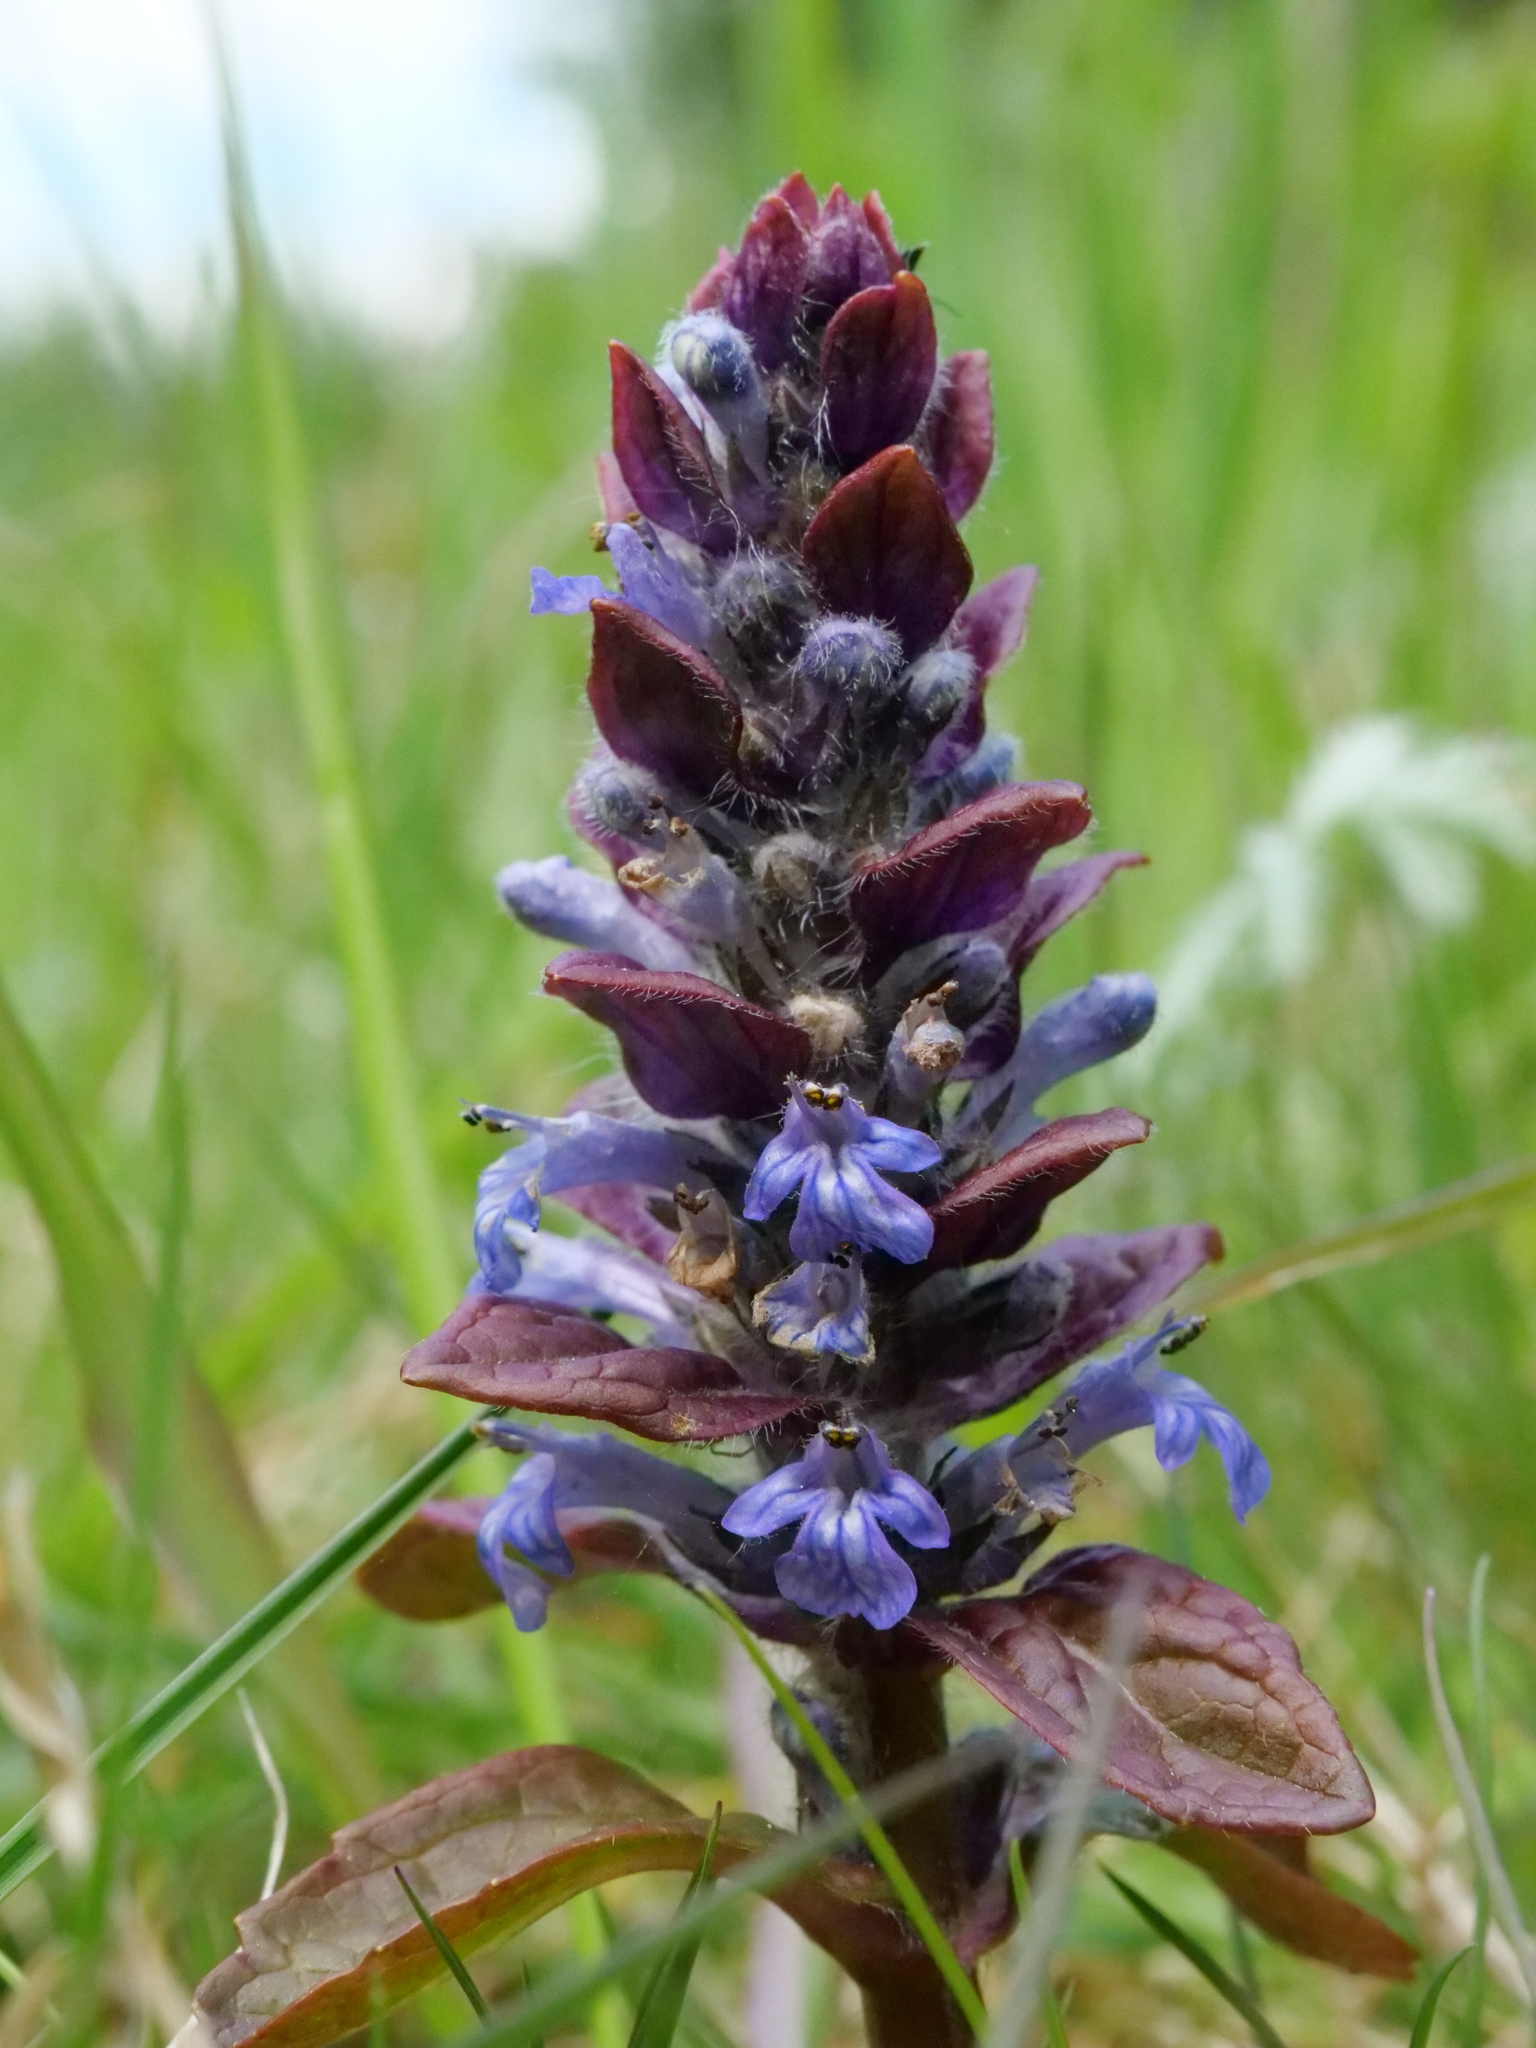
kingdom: Plantae
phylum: Tracheophyta
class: Magnoliopsida
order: Lamiales
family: Lamiaceae
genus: Ajuga
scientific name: Ajuga reptans
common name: Bugle
